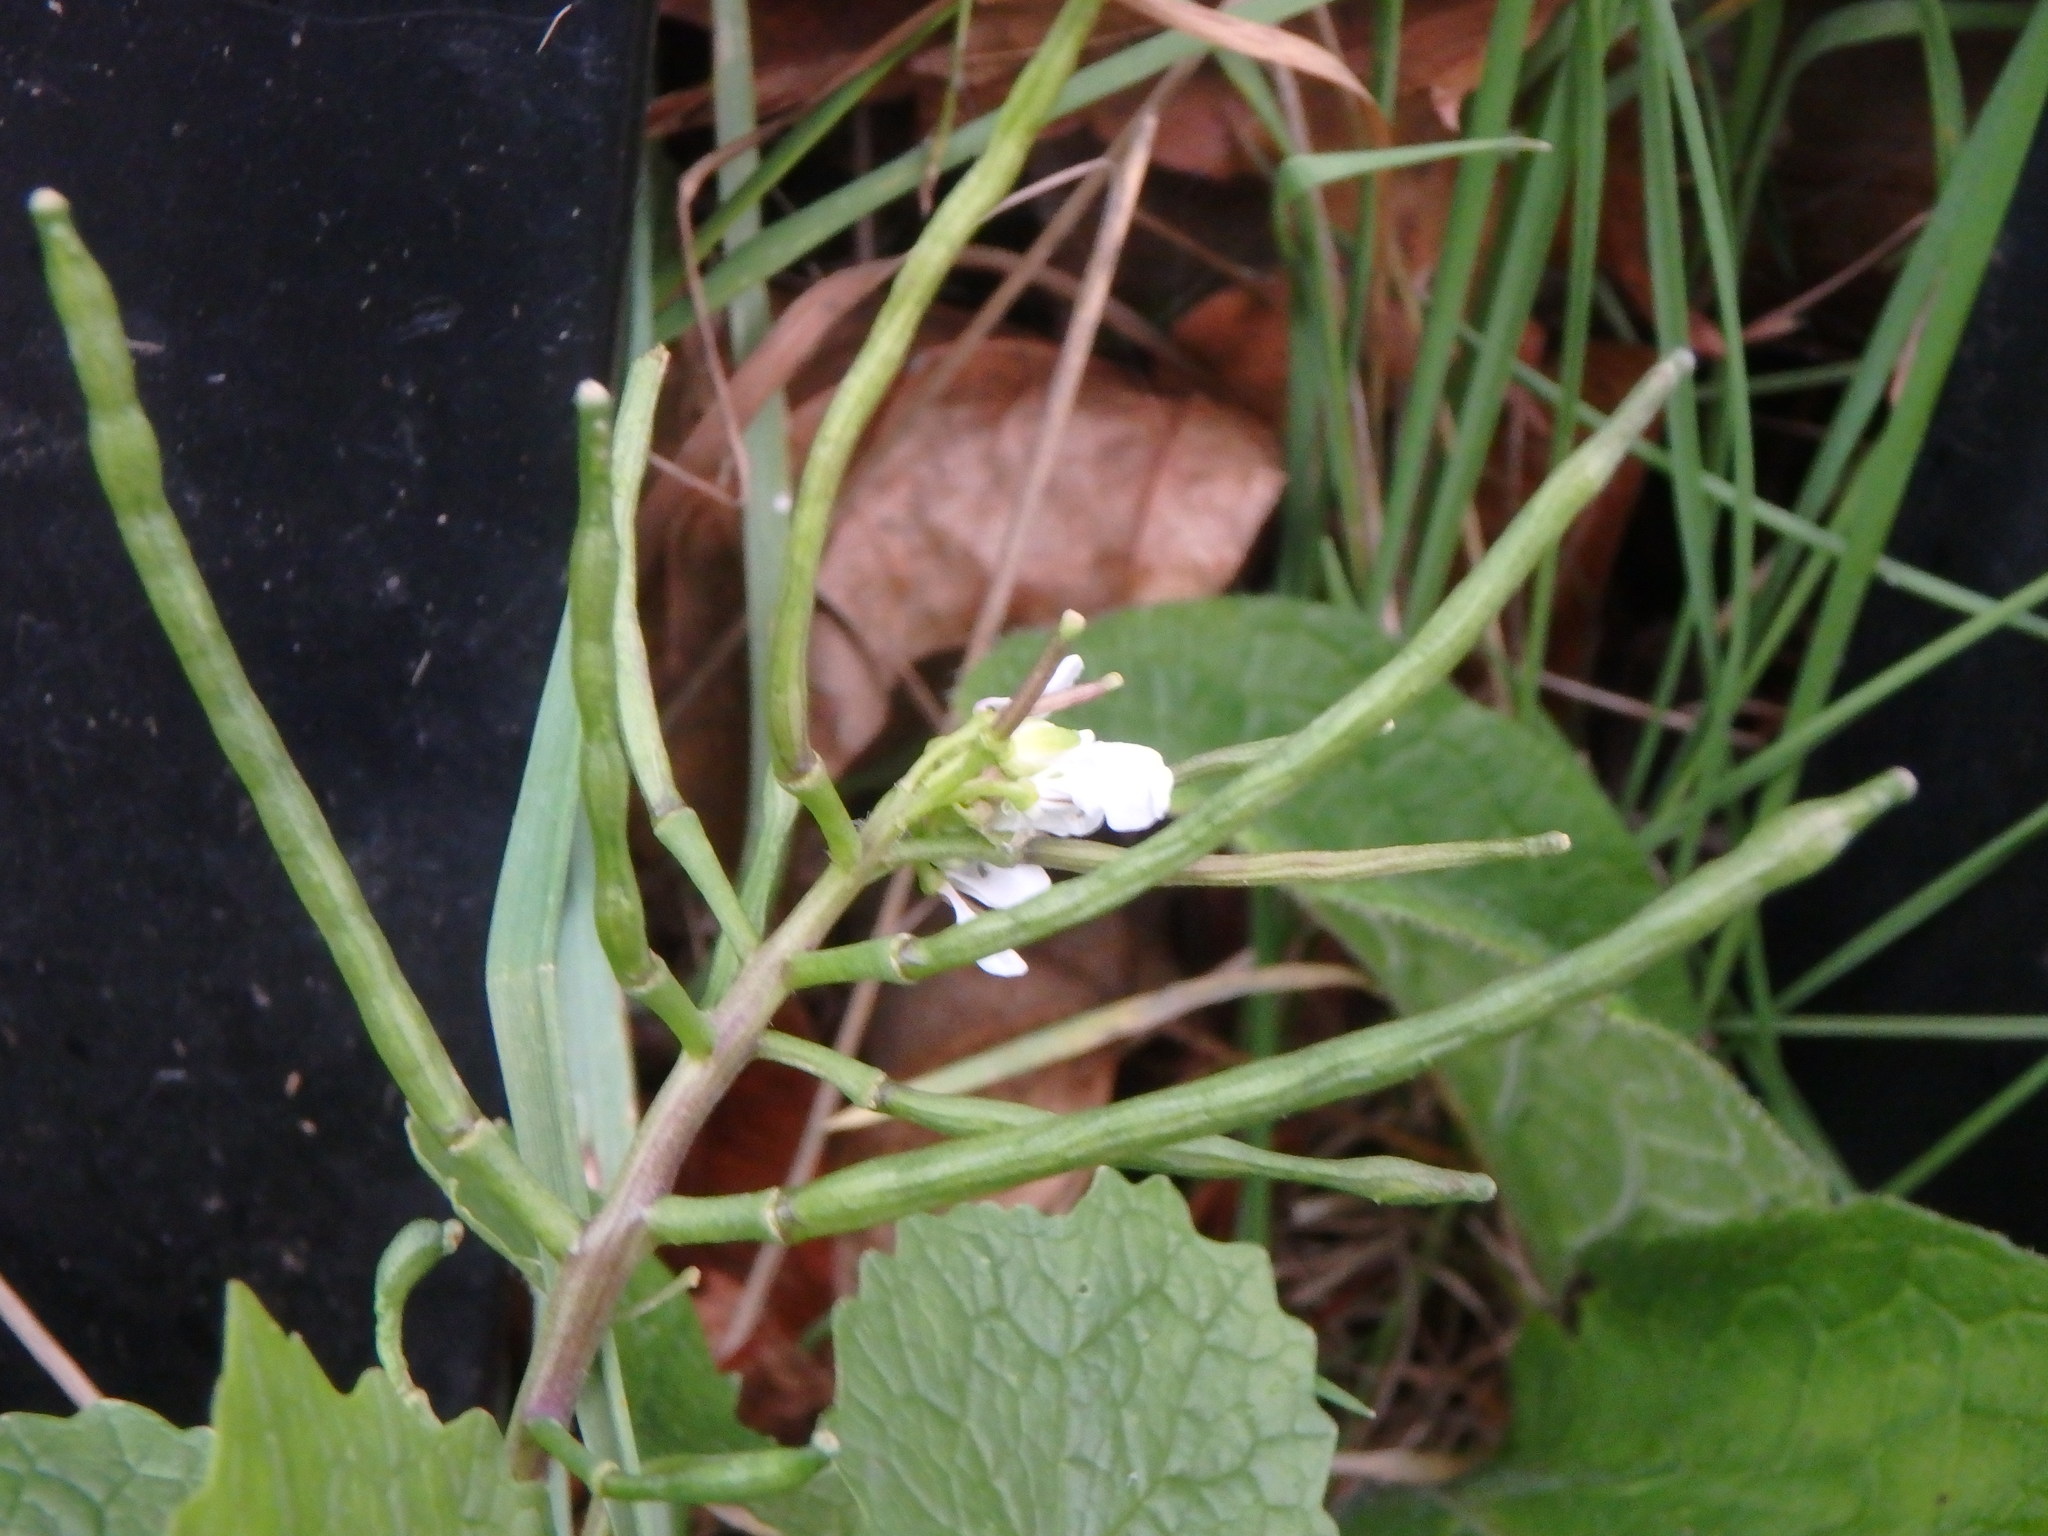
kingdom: Plantae
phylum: Tracheophyta
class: Magnoliopsida
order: Brassicales
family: Brassicaceae
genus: Alliaria
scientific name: Alliaria petiolata
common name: Garlic mustard
